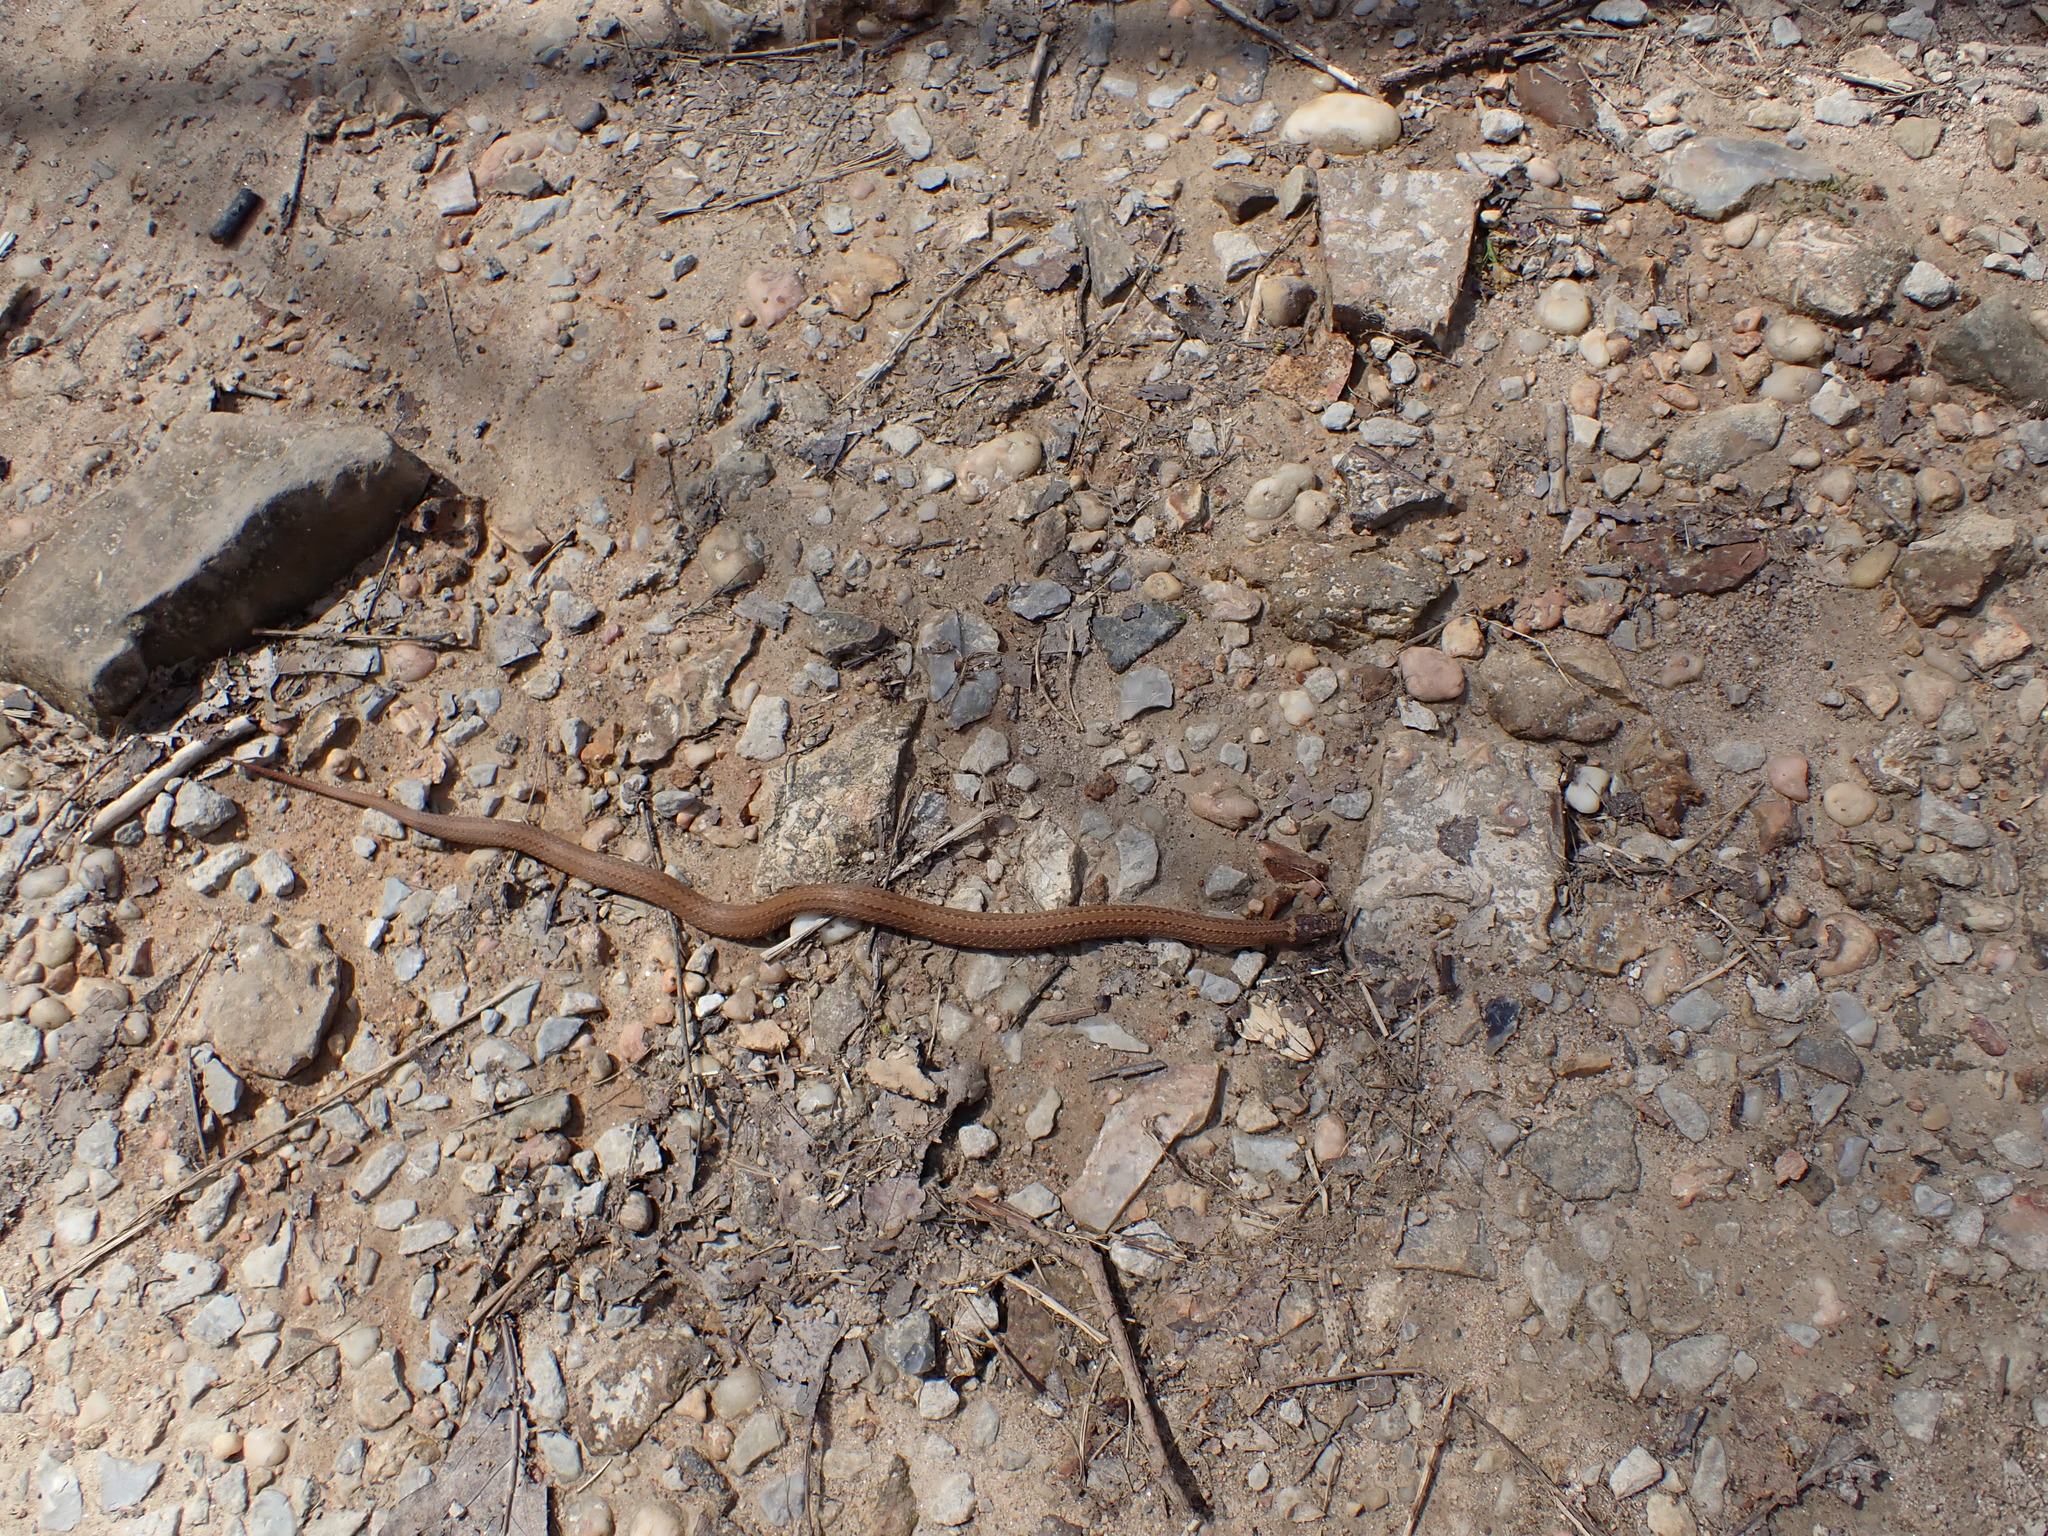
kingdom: Animalia
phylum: Chordata
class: Squamata
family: Colubridae
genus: Storeria
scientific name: Storeria occipitomaculata
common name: Redbelly snake
